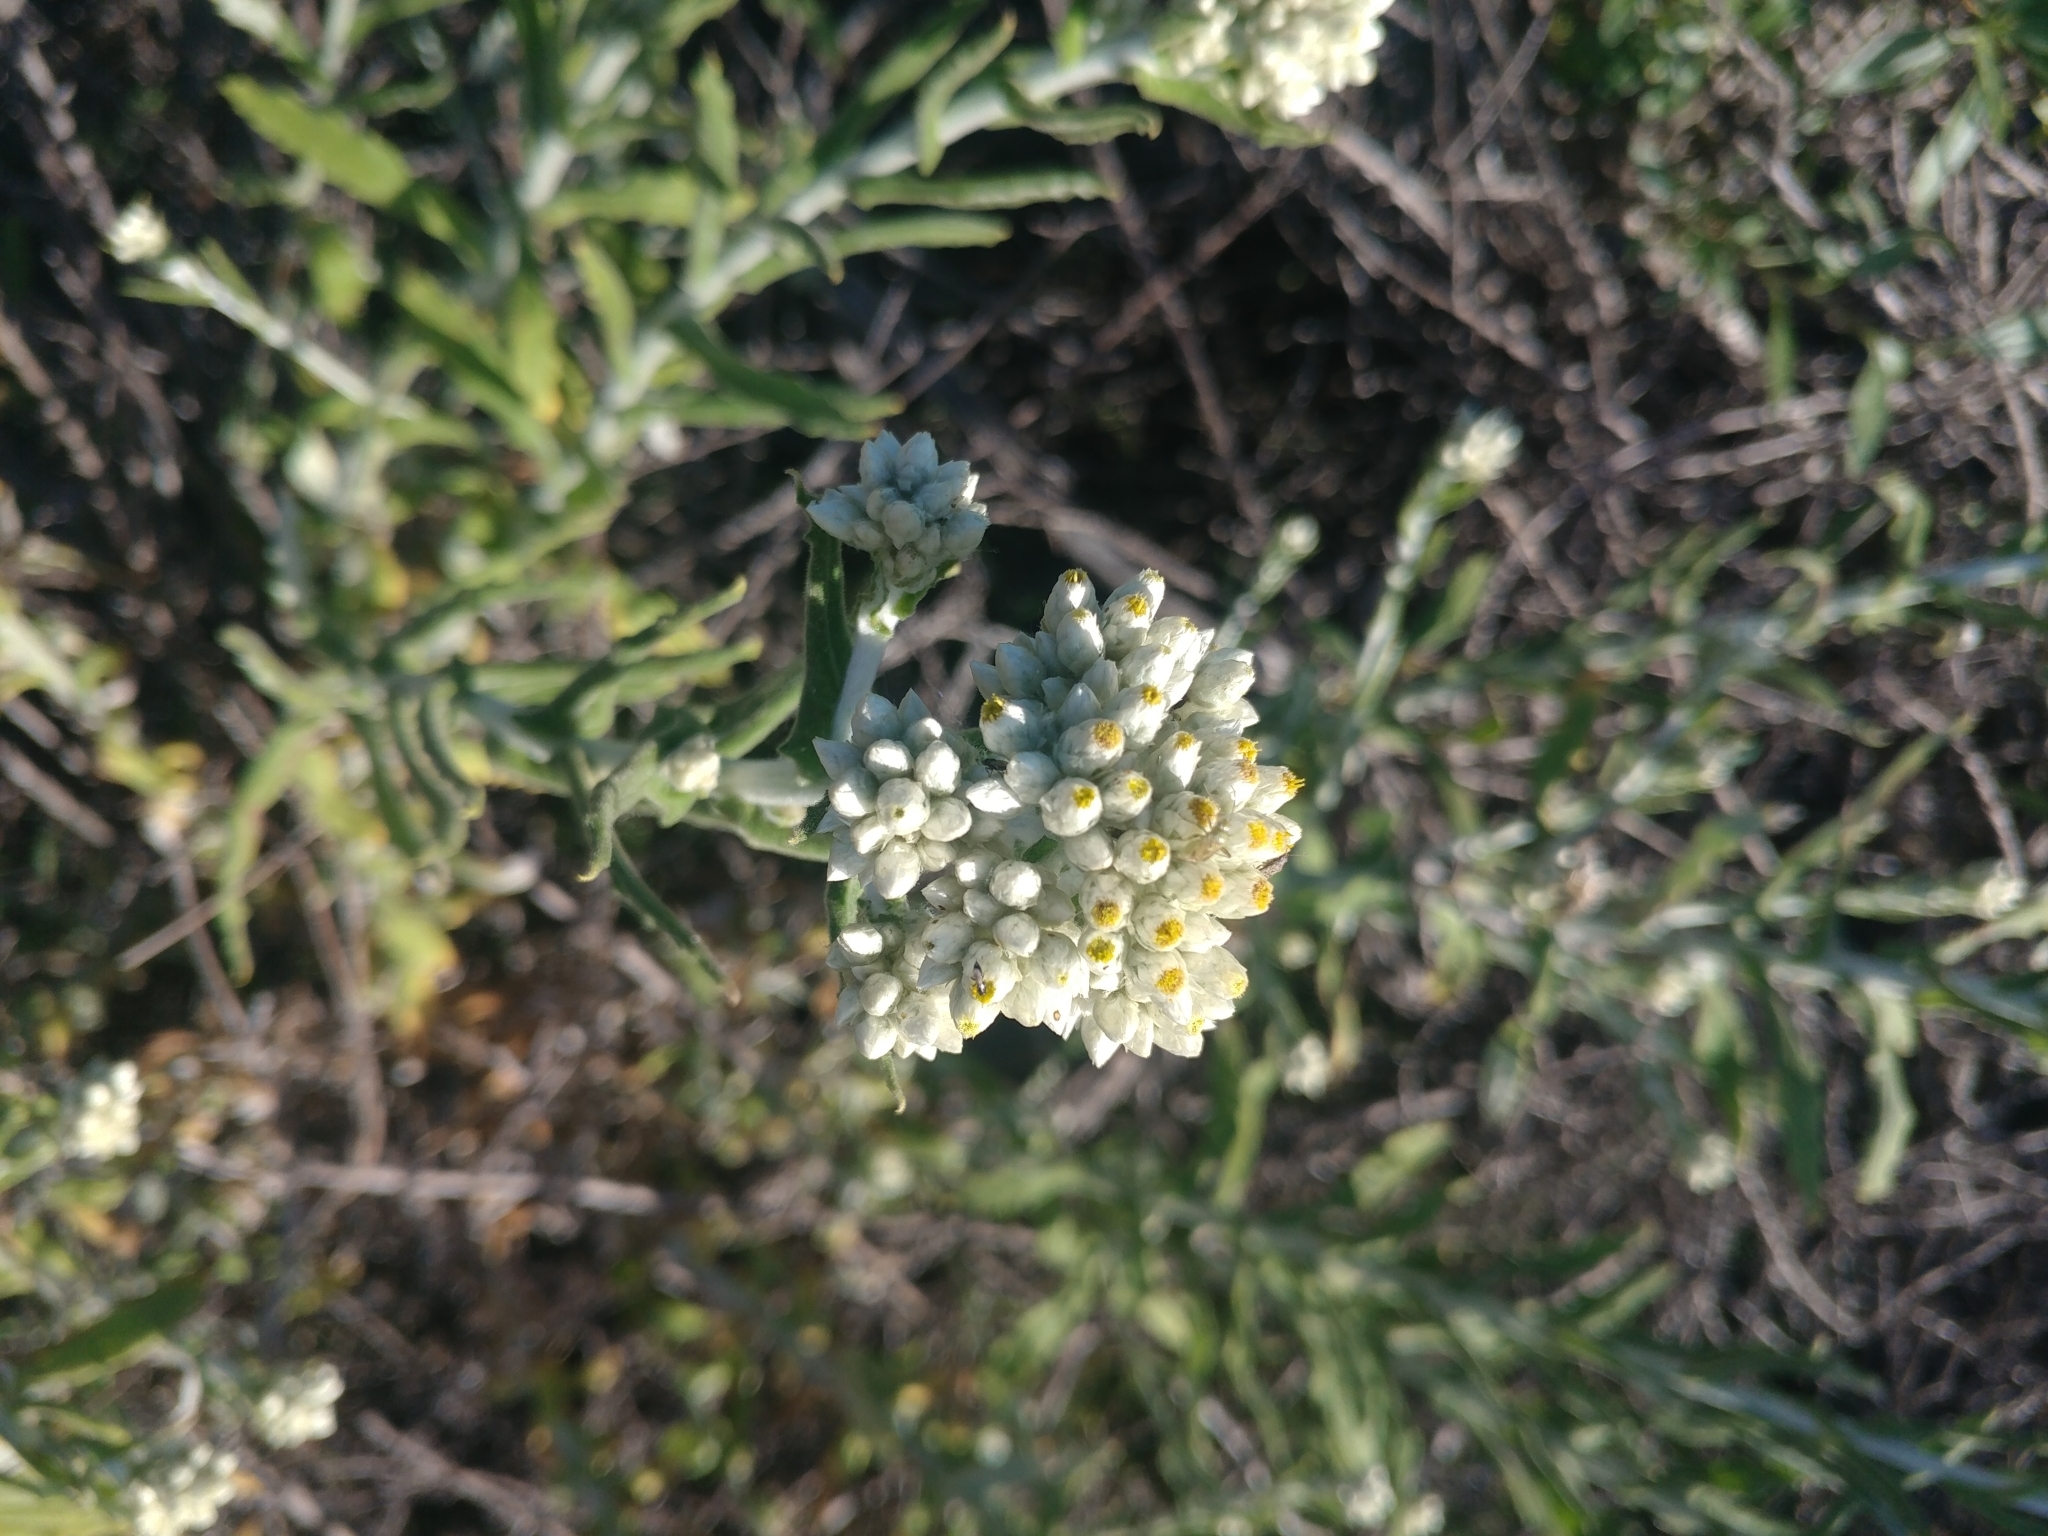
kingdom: Plantae
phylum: Tracheophyta
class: Magnoliopsida
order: Asterales
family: Asteraceae
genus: Pseudognaphalium
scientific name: Pseudognaphalium biolettii
